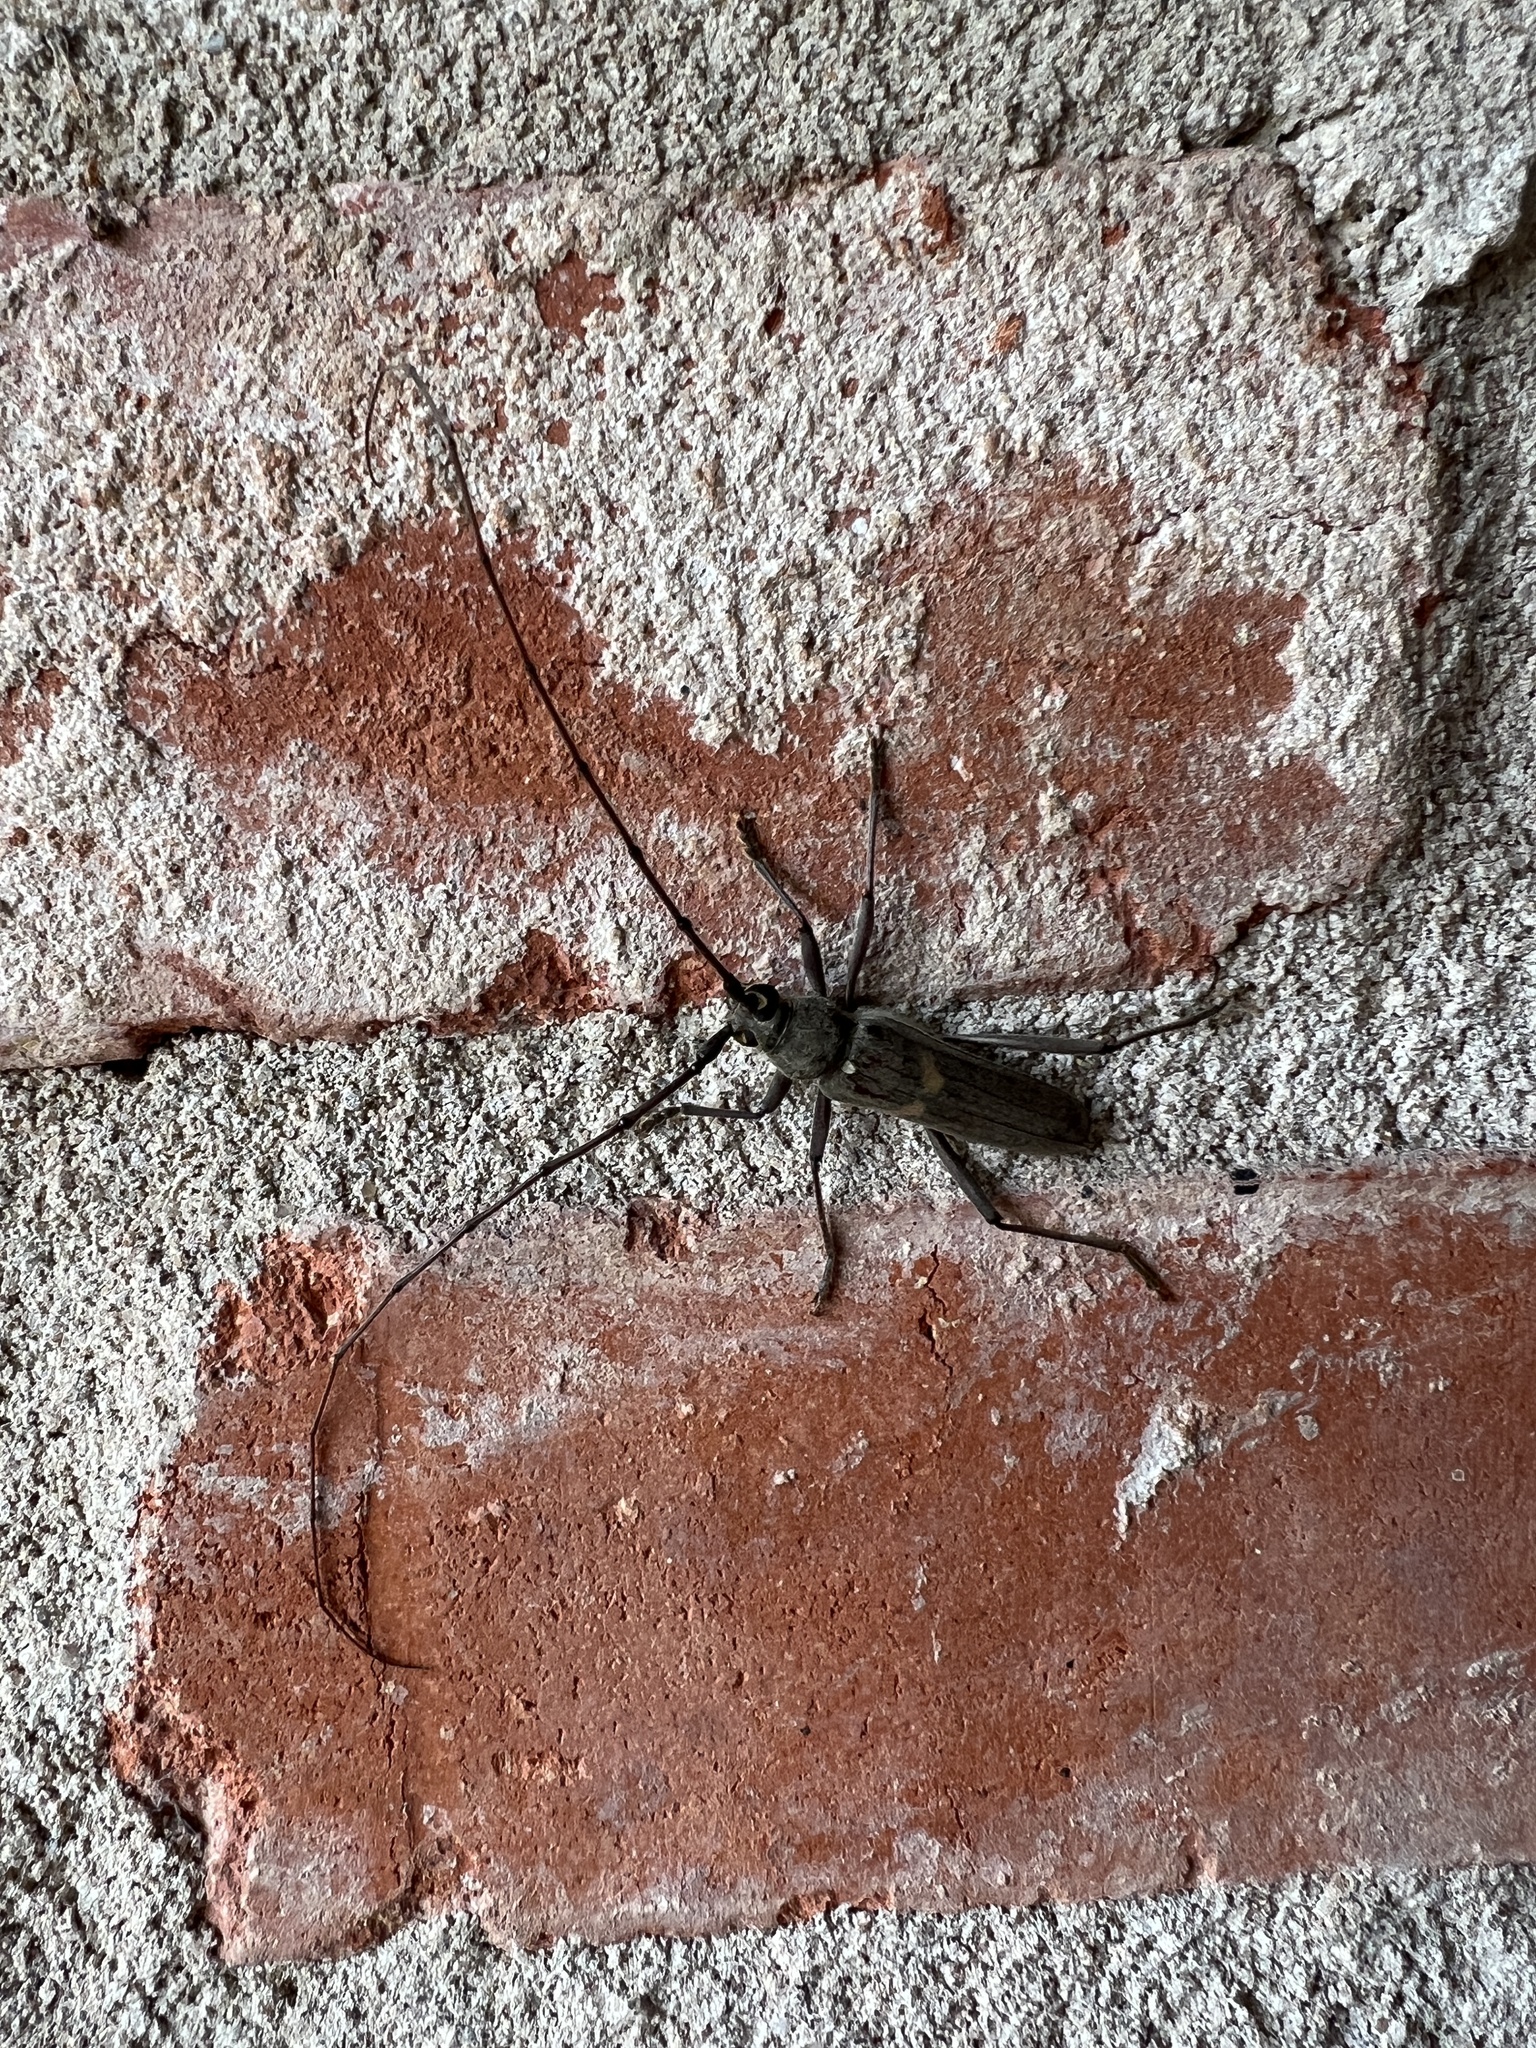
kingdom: Animalia
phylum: Arthropoda
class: Insecta
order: Coleoptera
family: Cerambycidae
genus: Knulliana
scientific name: Knulliana cincta
